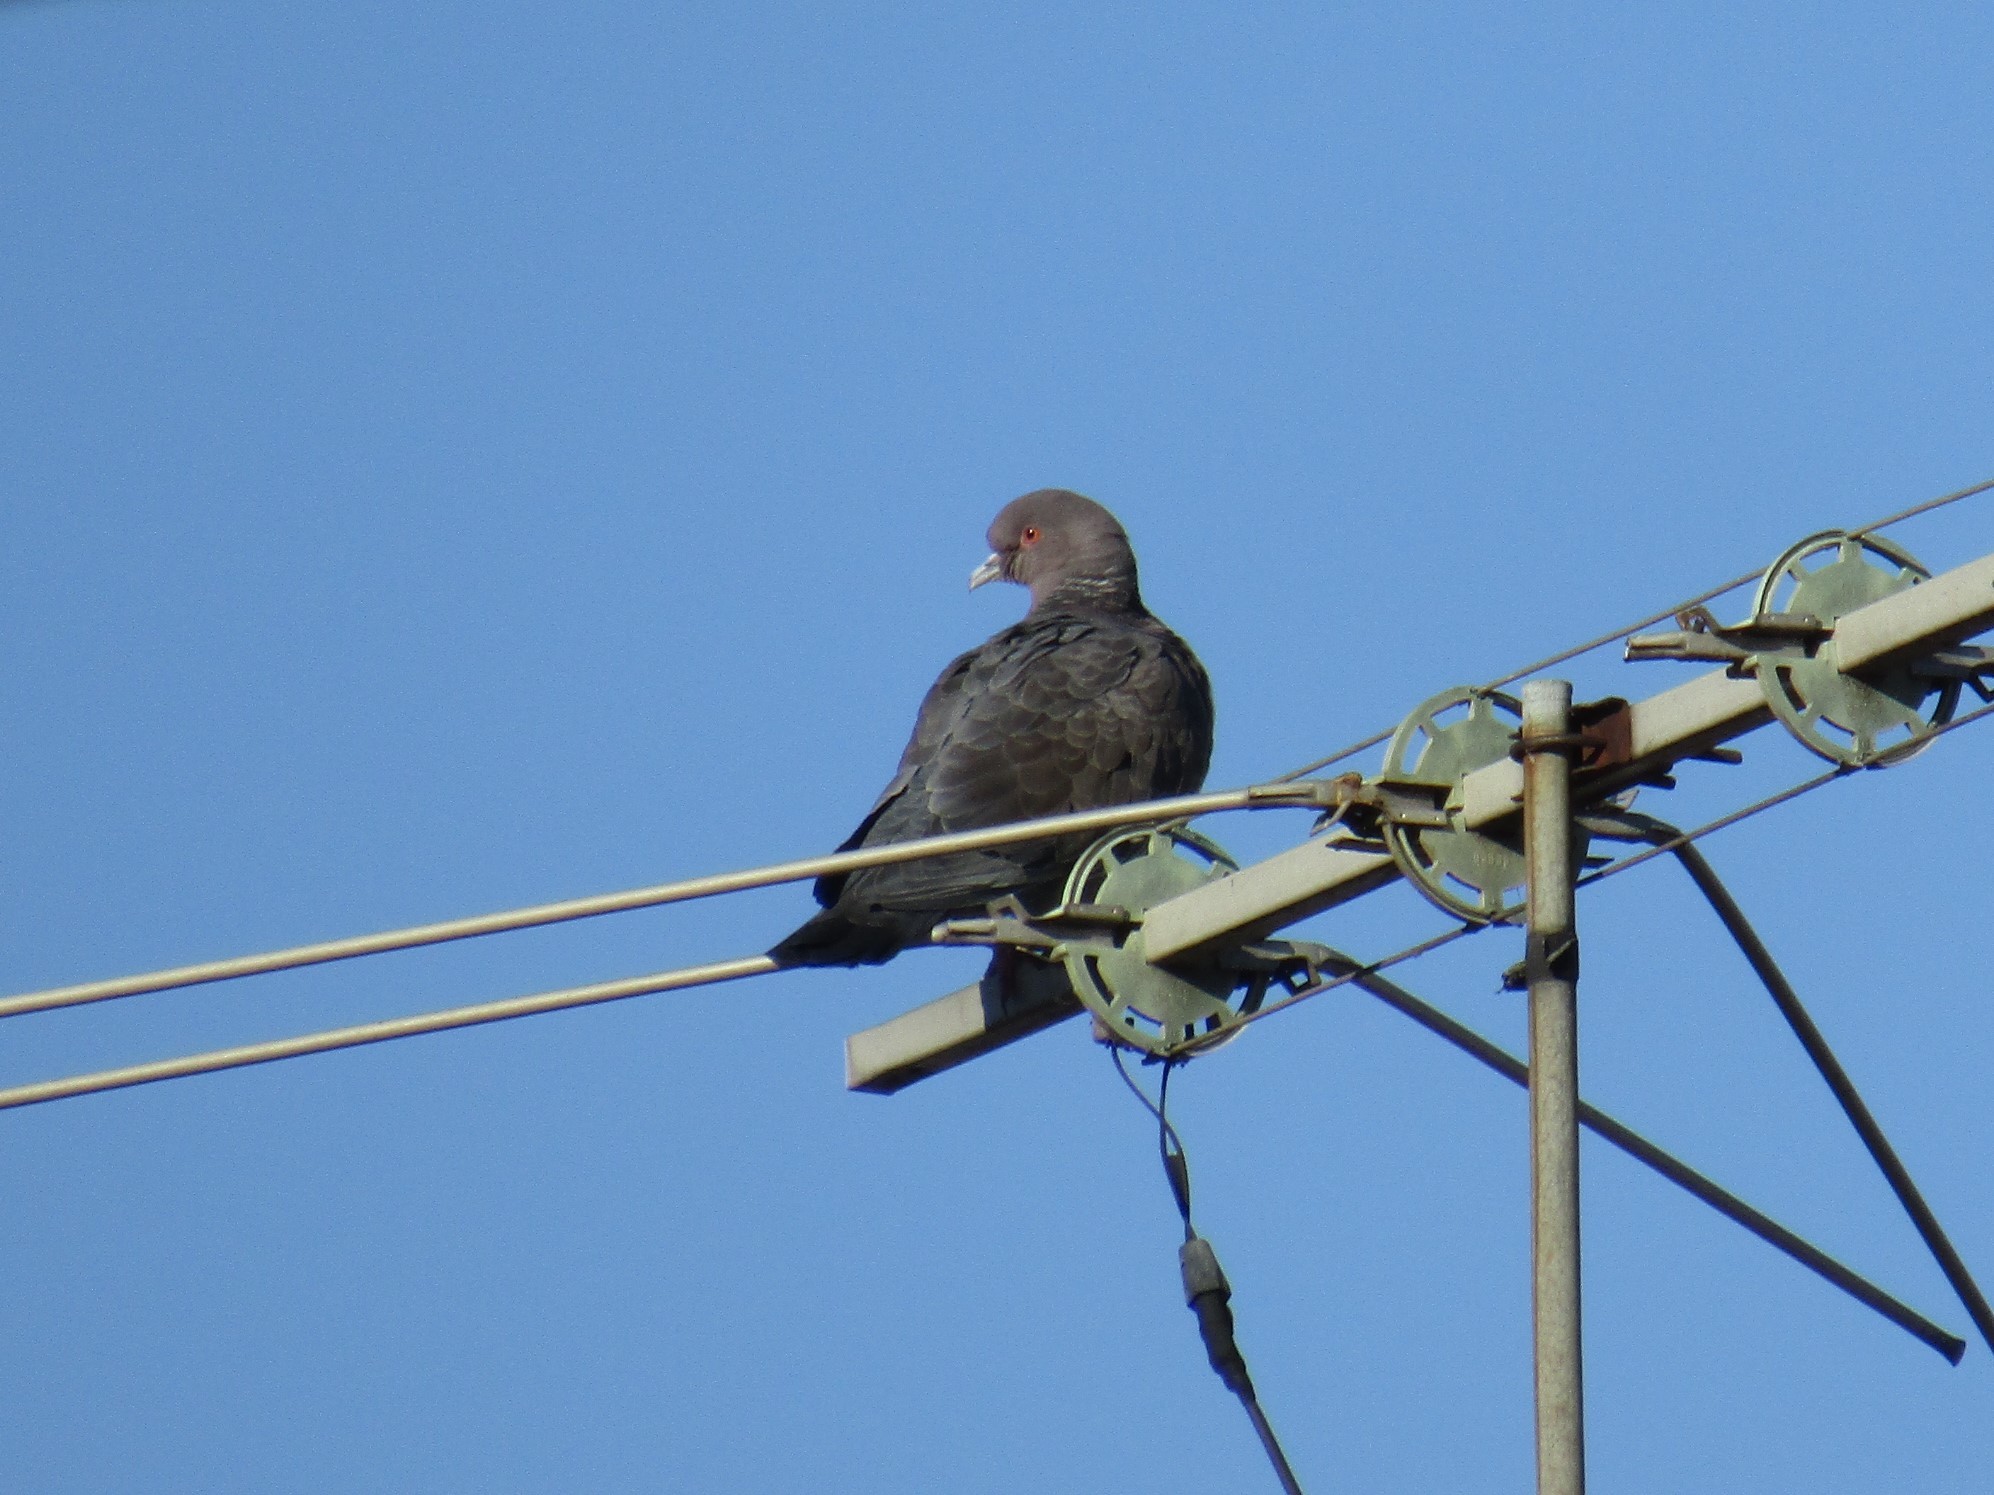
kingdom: Animalia
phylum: Chordata
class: Aves
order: Columbiformes
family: Columbidae
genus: Patagioenas
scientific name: Patagioenas picazuro
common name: Picazuro pigeon
